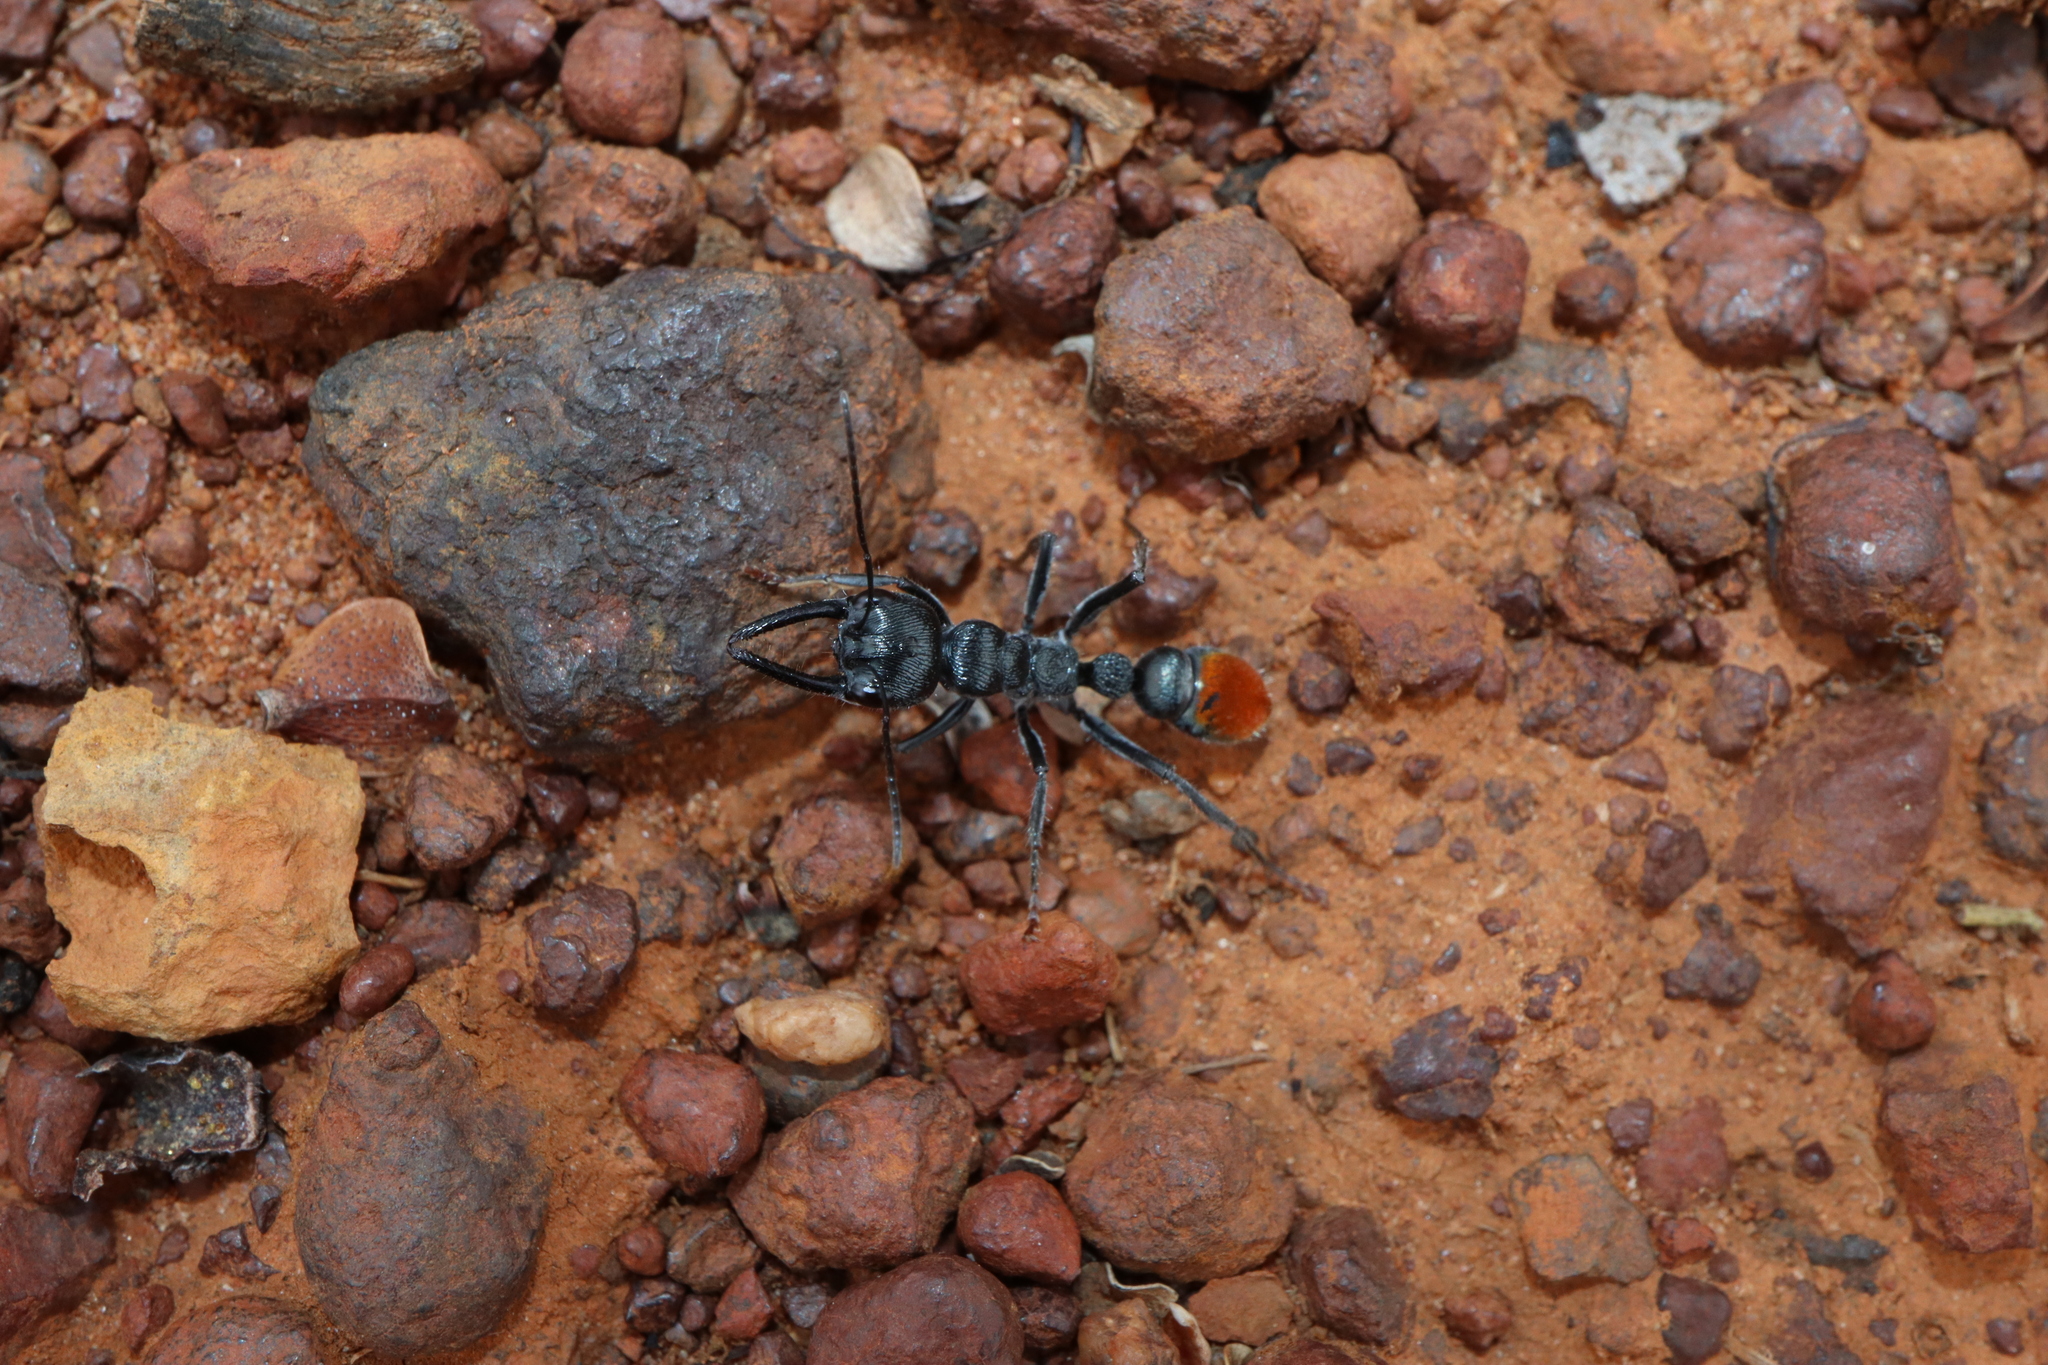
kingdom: Animalia
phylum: Arthropoda
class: Insecta
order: Hymenoptera
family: Formicidae
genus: Myrmecia
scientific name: Myrmecia mandibularis
